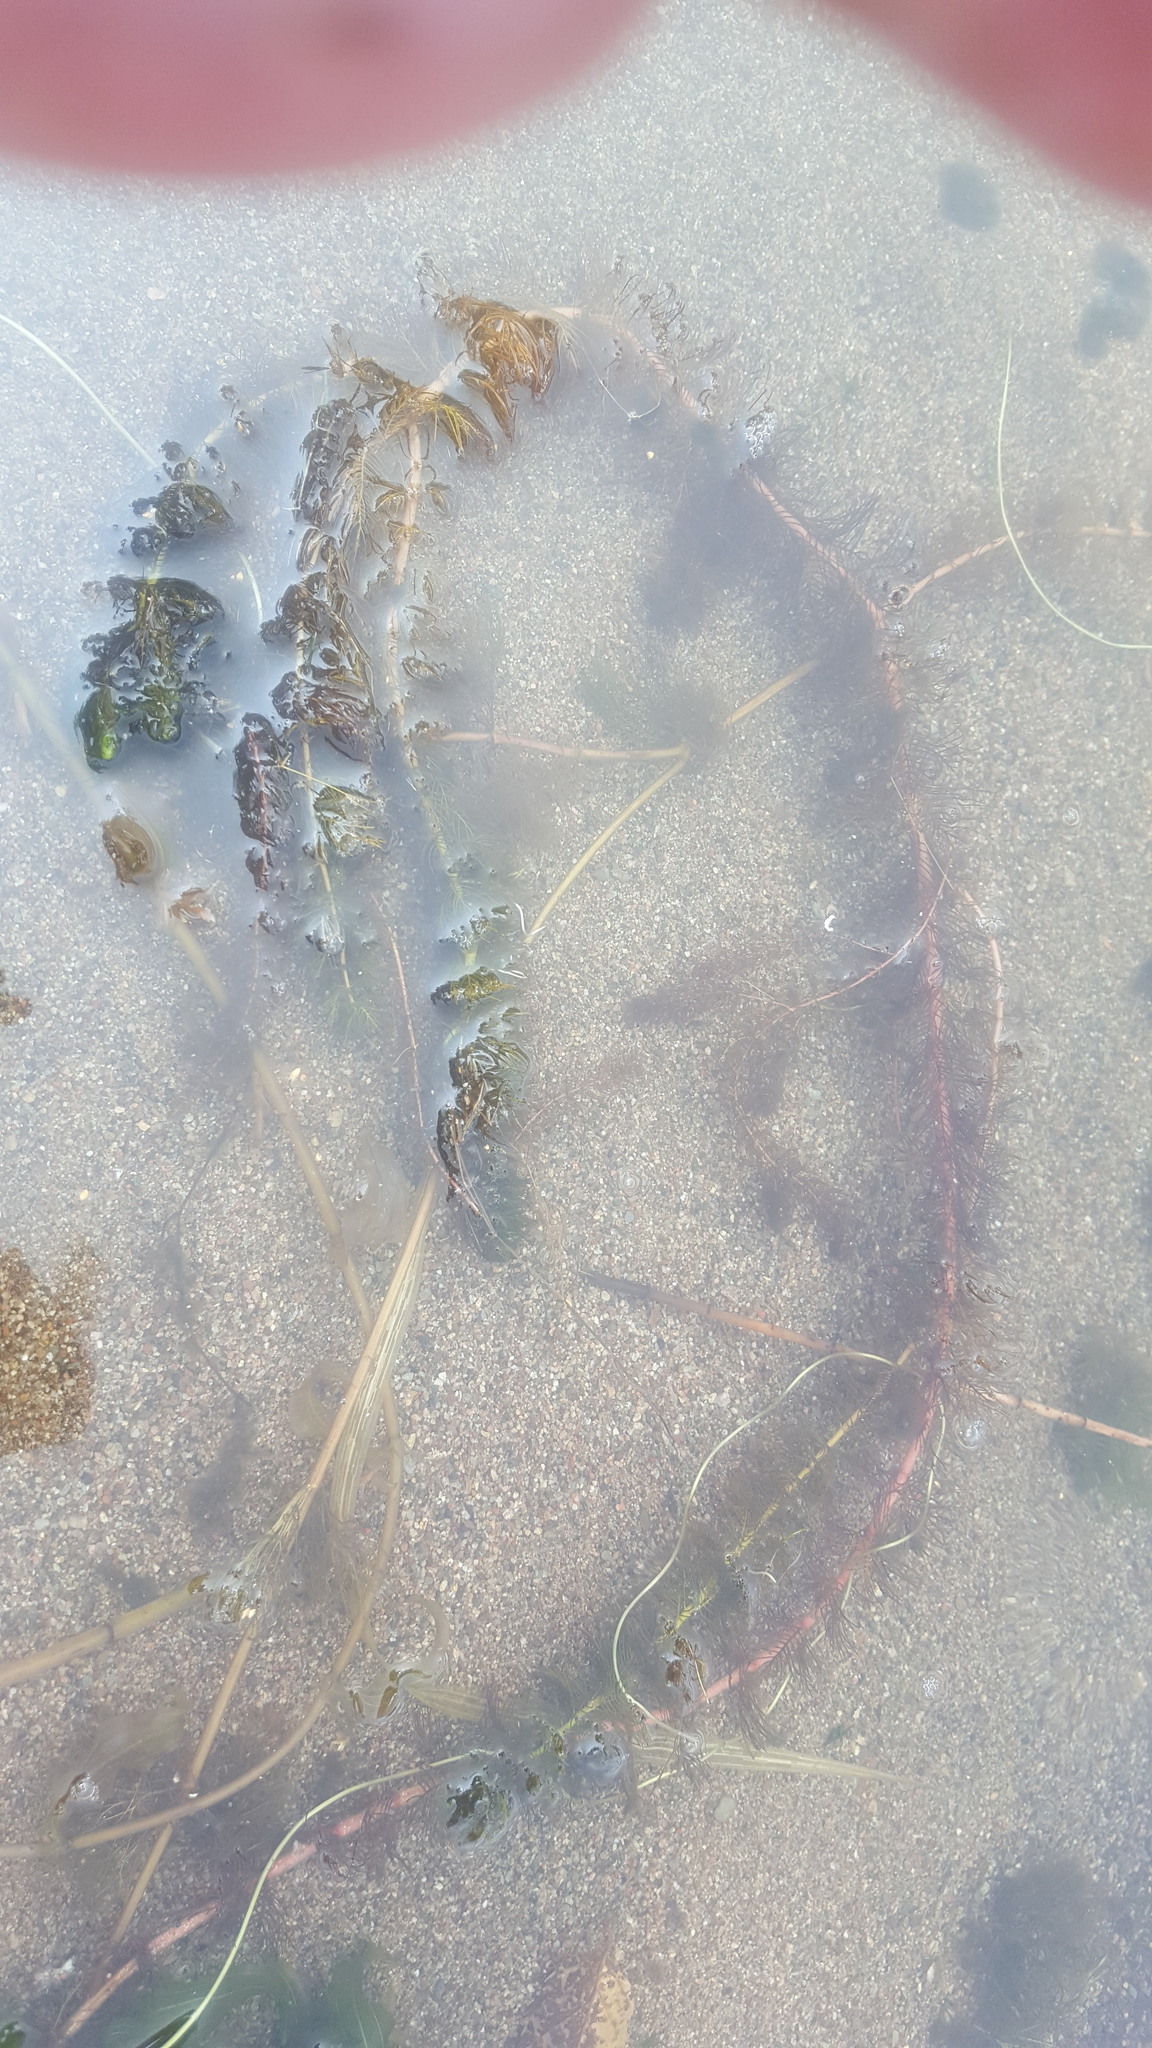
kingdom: Plantae
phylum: Tracheophyta
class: Magnoliopsida
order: Saxifragales
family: Haloragaceae
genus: Myriophyllum
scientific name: Myriophyllum sibiricum
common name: Siberian water-milfoil
